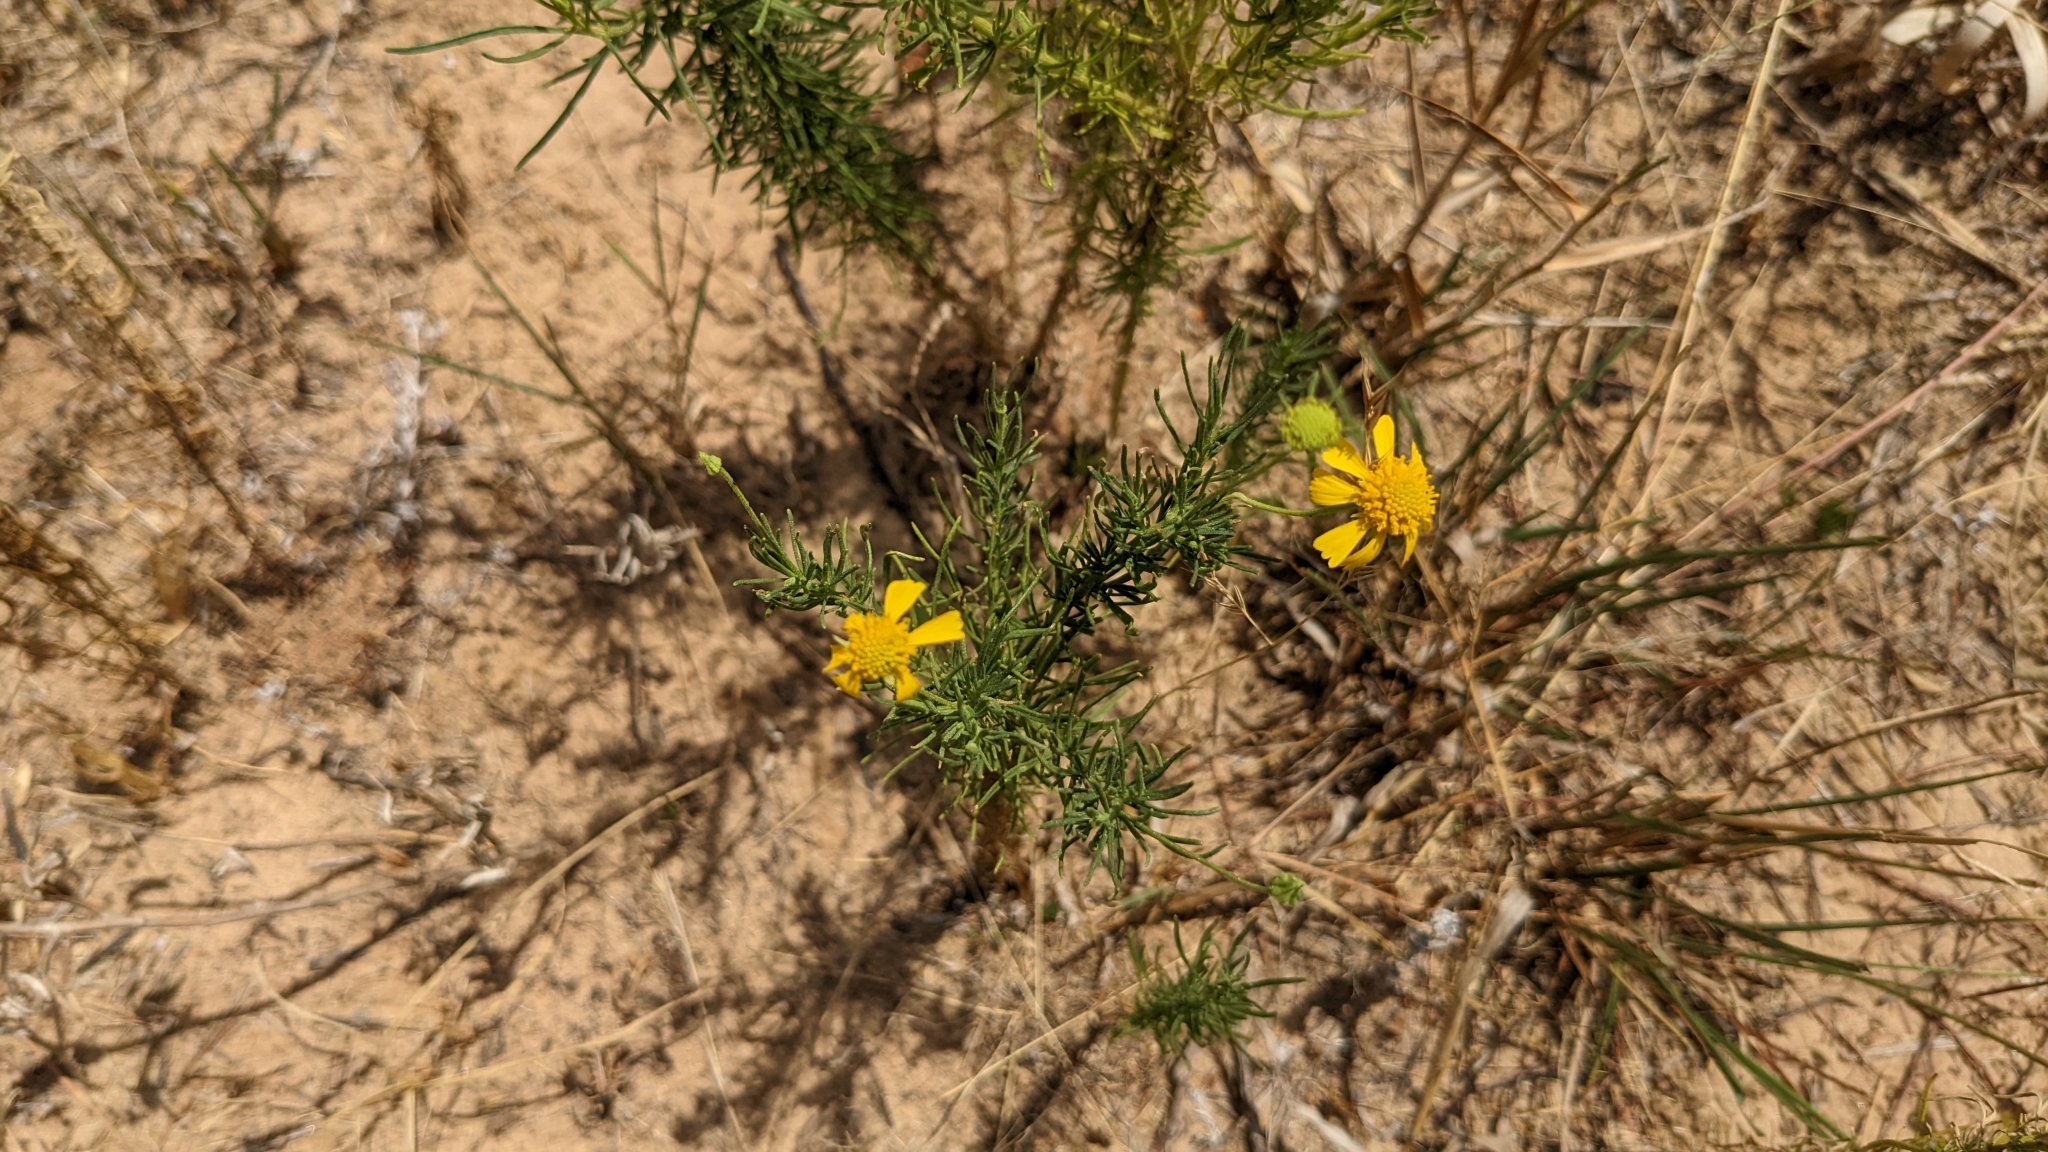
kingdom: Plantae
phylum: Tracheophyta
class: Magnoliopsida
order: Asterales
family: Asteraceae
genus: Helenium
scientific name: Helenium amarum
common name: Bitter sneezeweed
